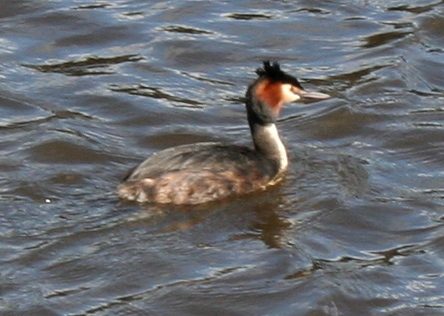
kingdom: Animalia
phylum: Chordata
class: Aves
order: Podicipediformes
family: Podicipedidae
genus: Podiceps
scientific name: Podiceps cristatus
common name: Great crested grebe
